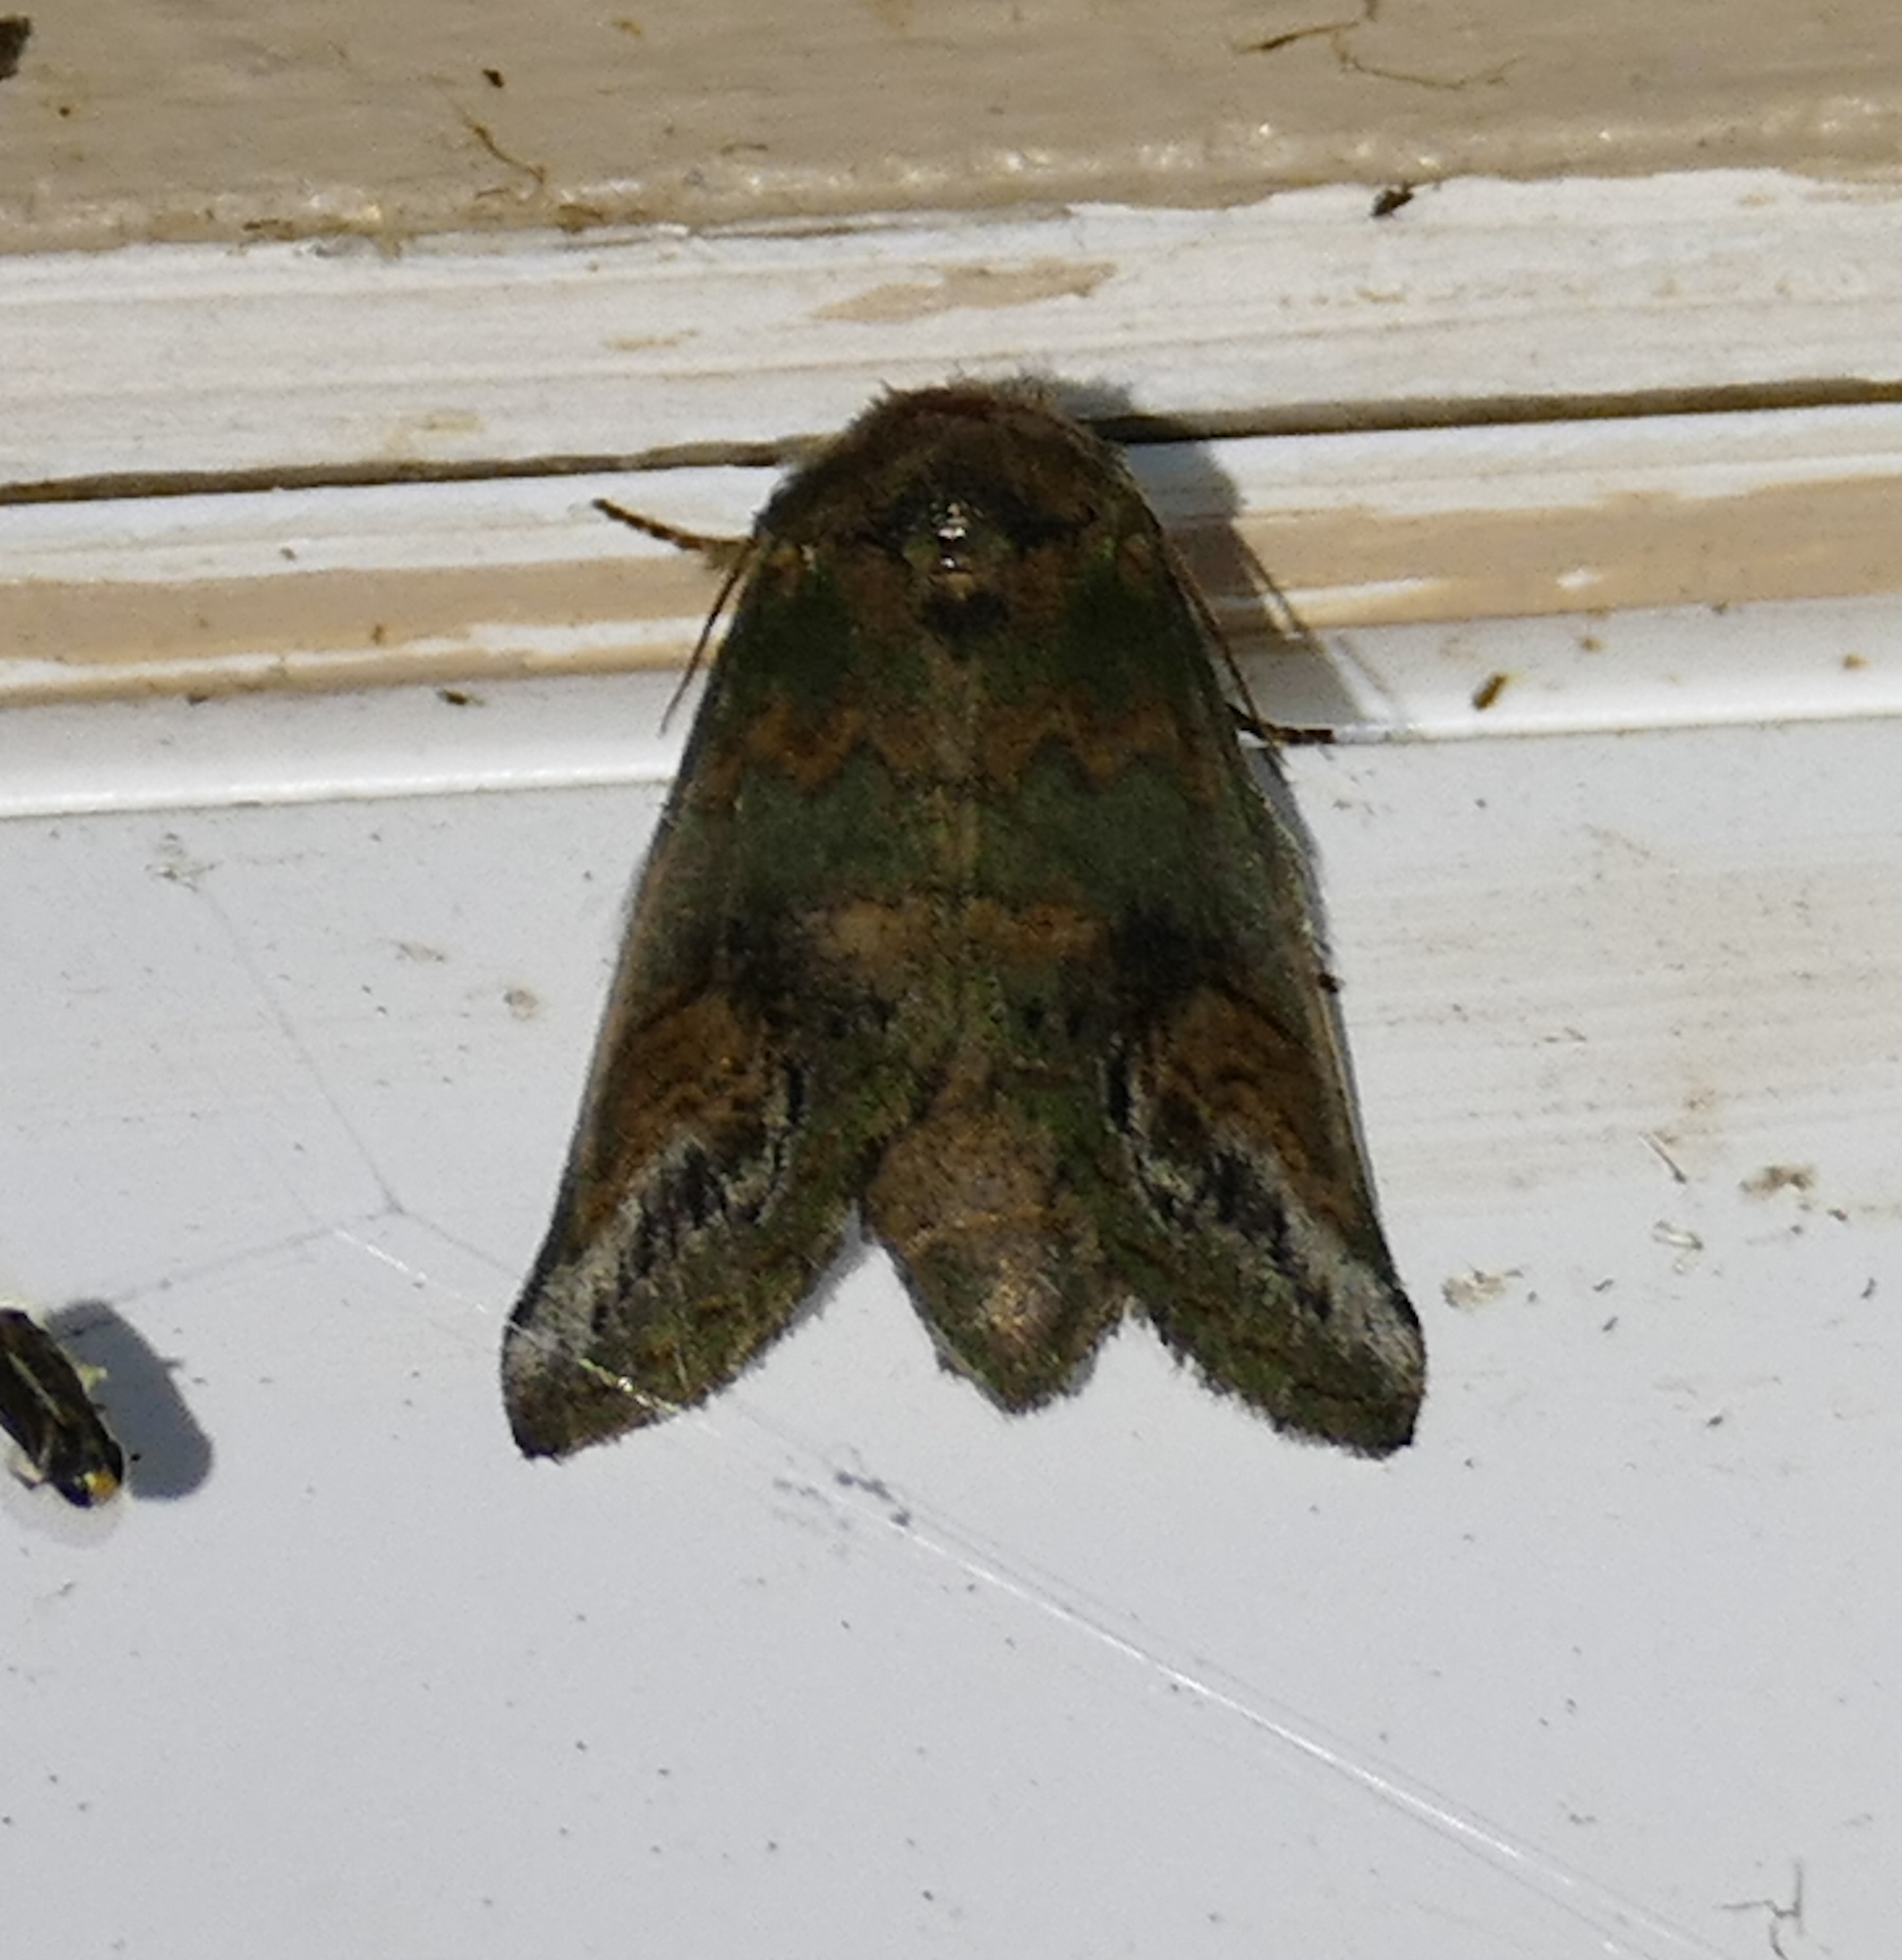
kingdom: Animalia
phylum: Arthropoda
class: Insecta
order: Lepidoptera
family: Notodontidae
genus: Rifargia
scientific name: Rifargia
